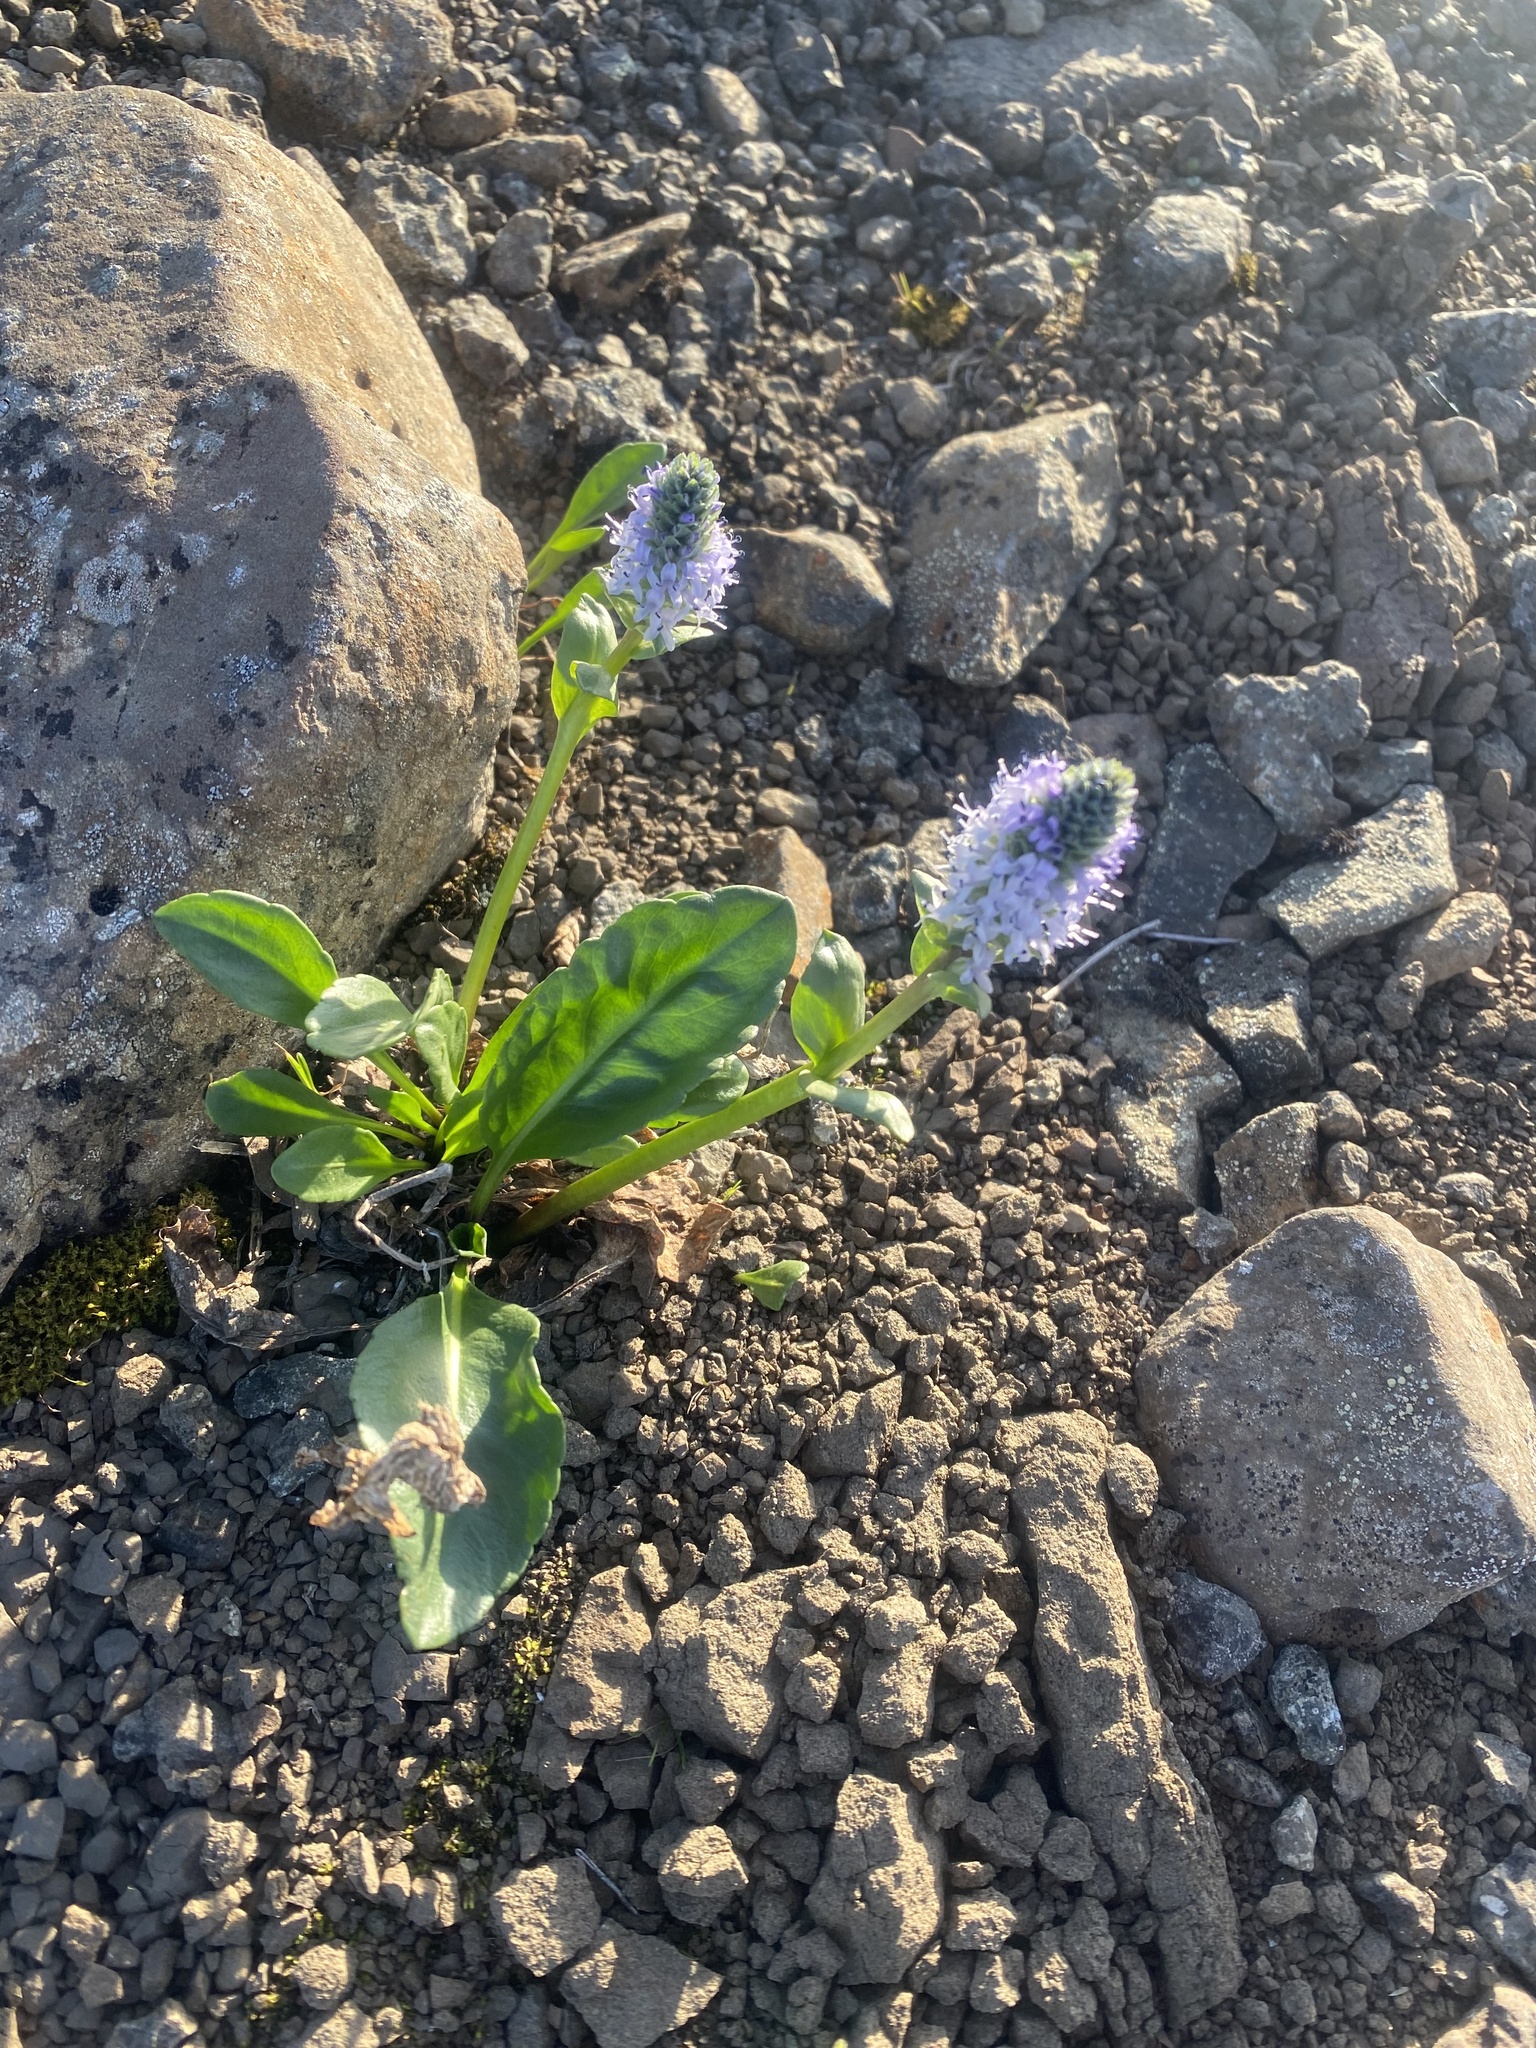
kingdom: Plantae
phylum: Tracheophyta
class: Magnoliopsida
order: Lamiales
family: Plantaginaceae
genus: Lagotis
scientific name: Lagotis glauca
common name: Glaucous weaselsnout
